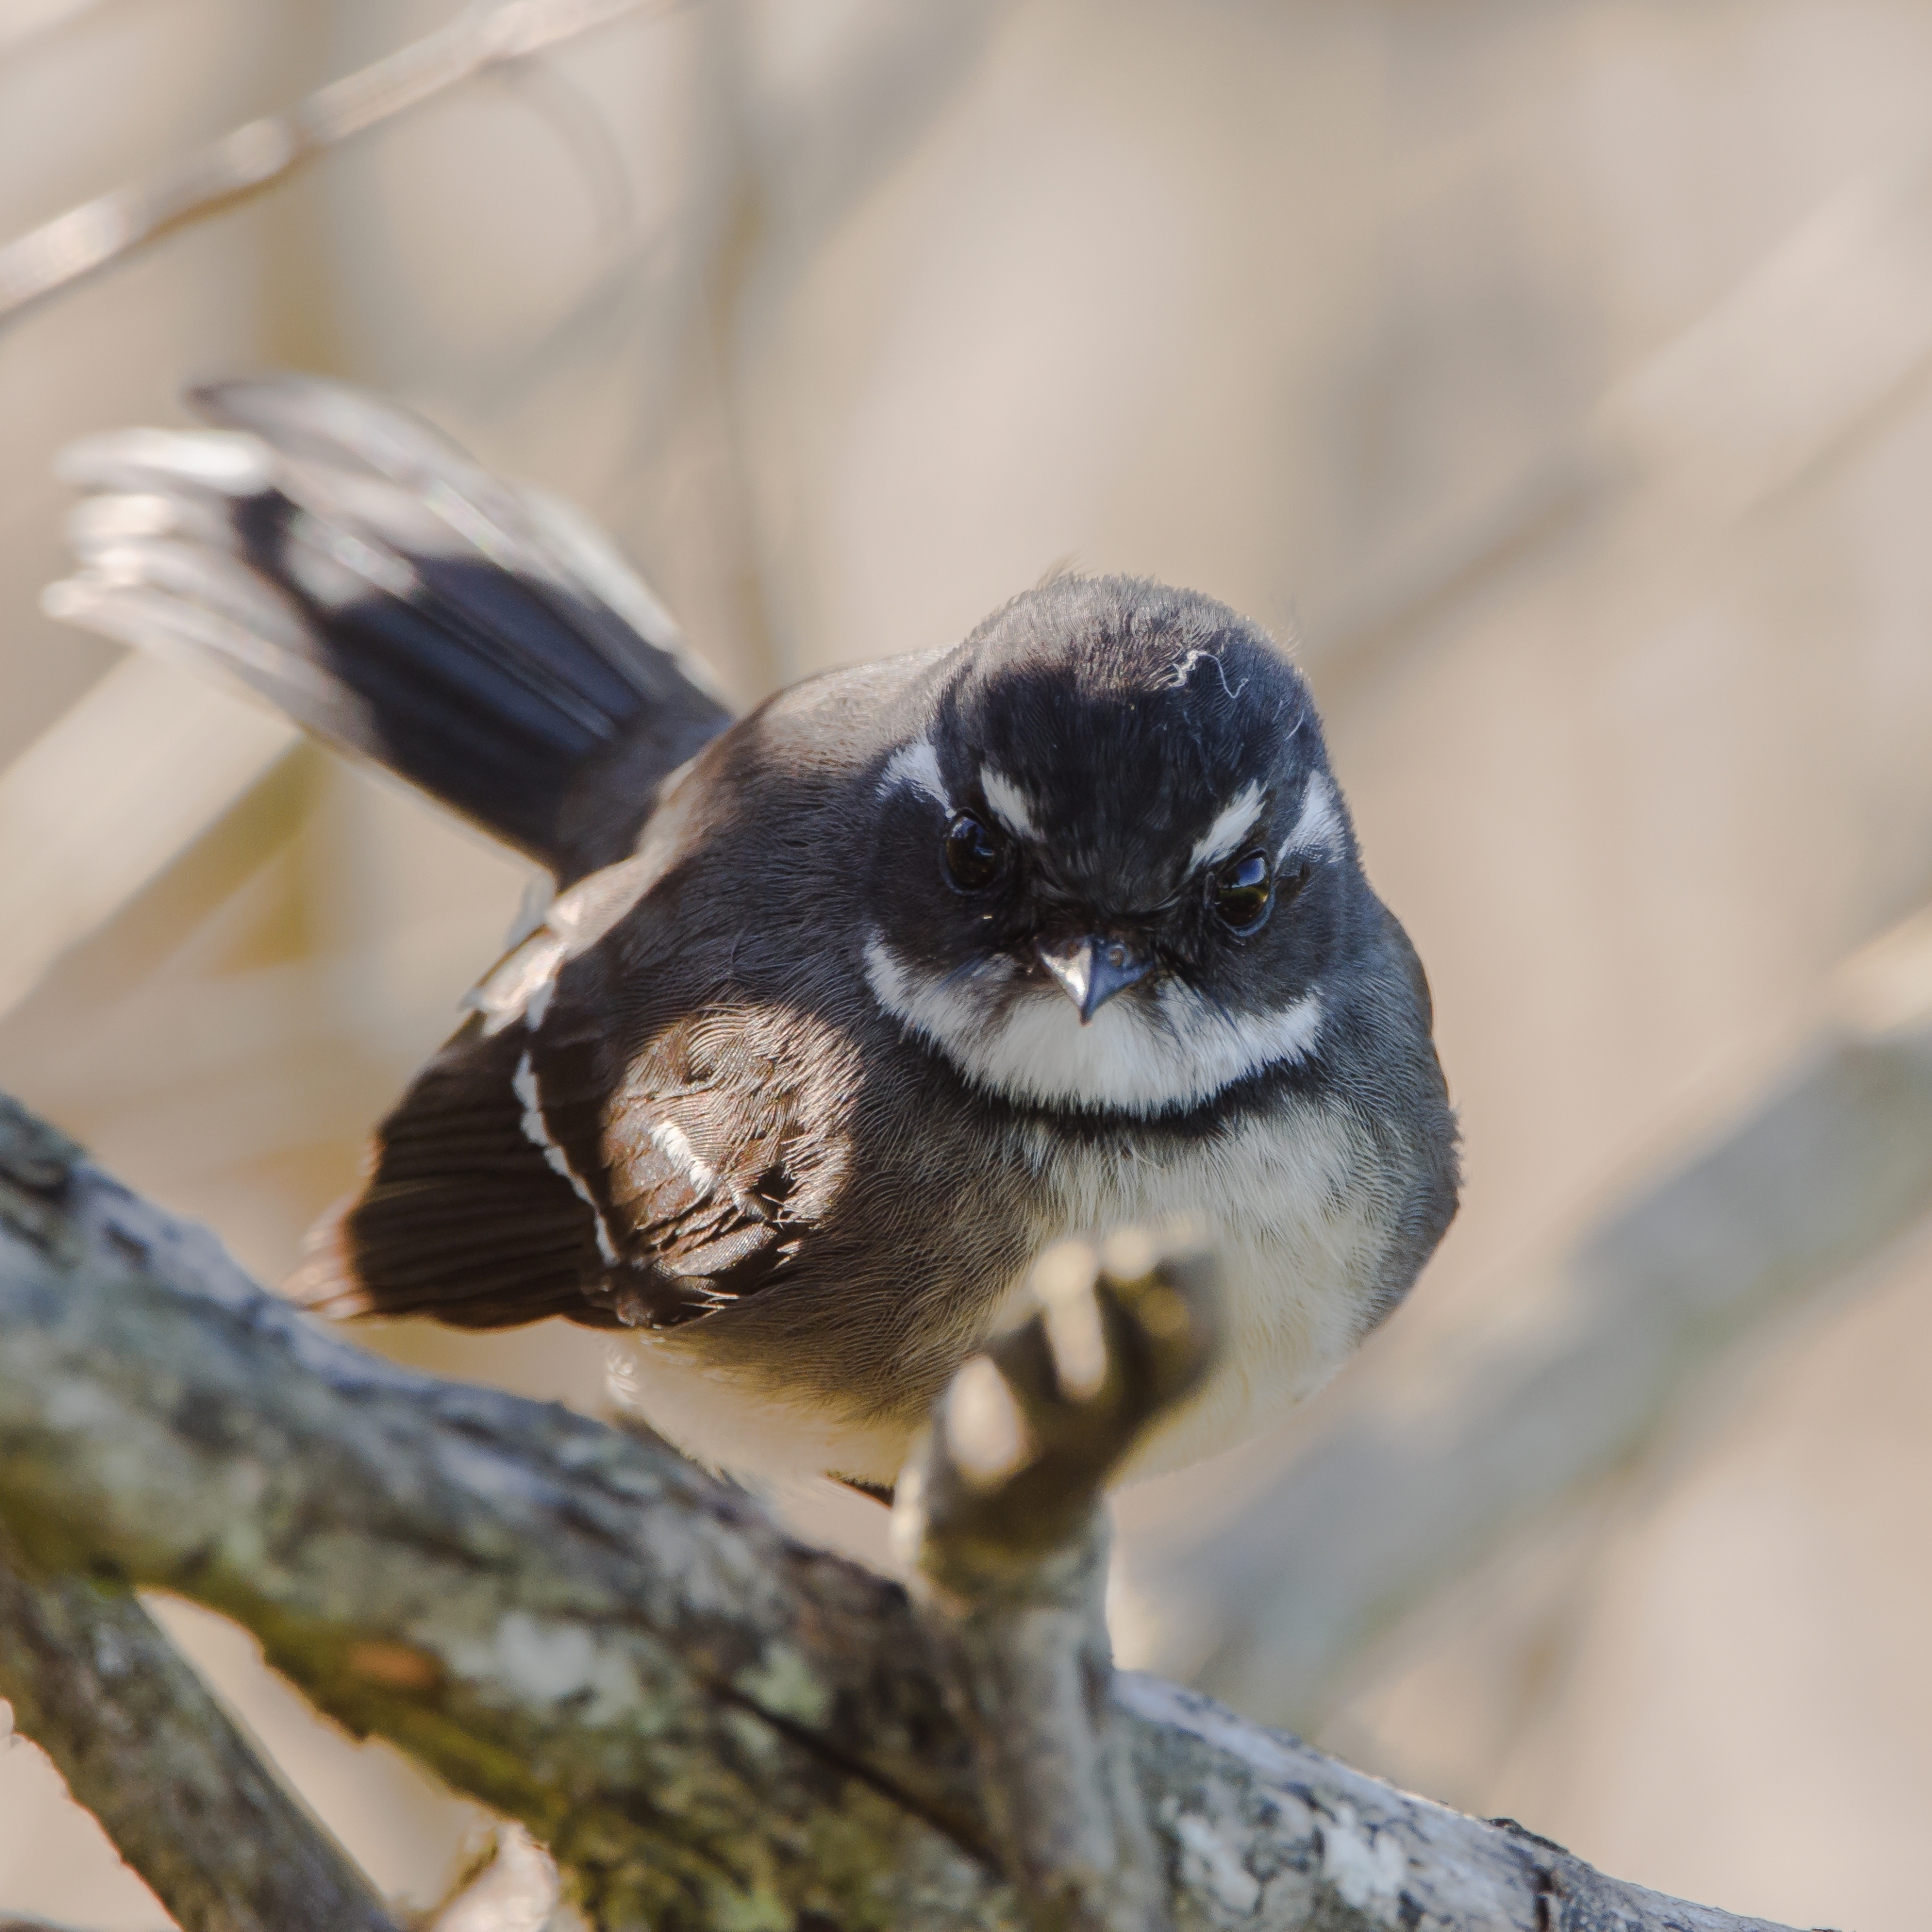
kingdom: Animalia
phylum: Chordata
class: Aves
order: Passeriformes
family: Rhipiduridae
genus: Rhipidura
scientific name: Rhipidura albiscapa
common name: Grey fantail
